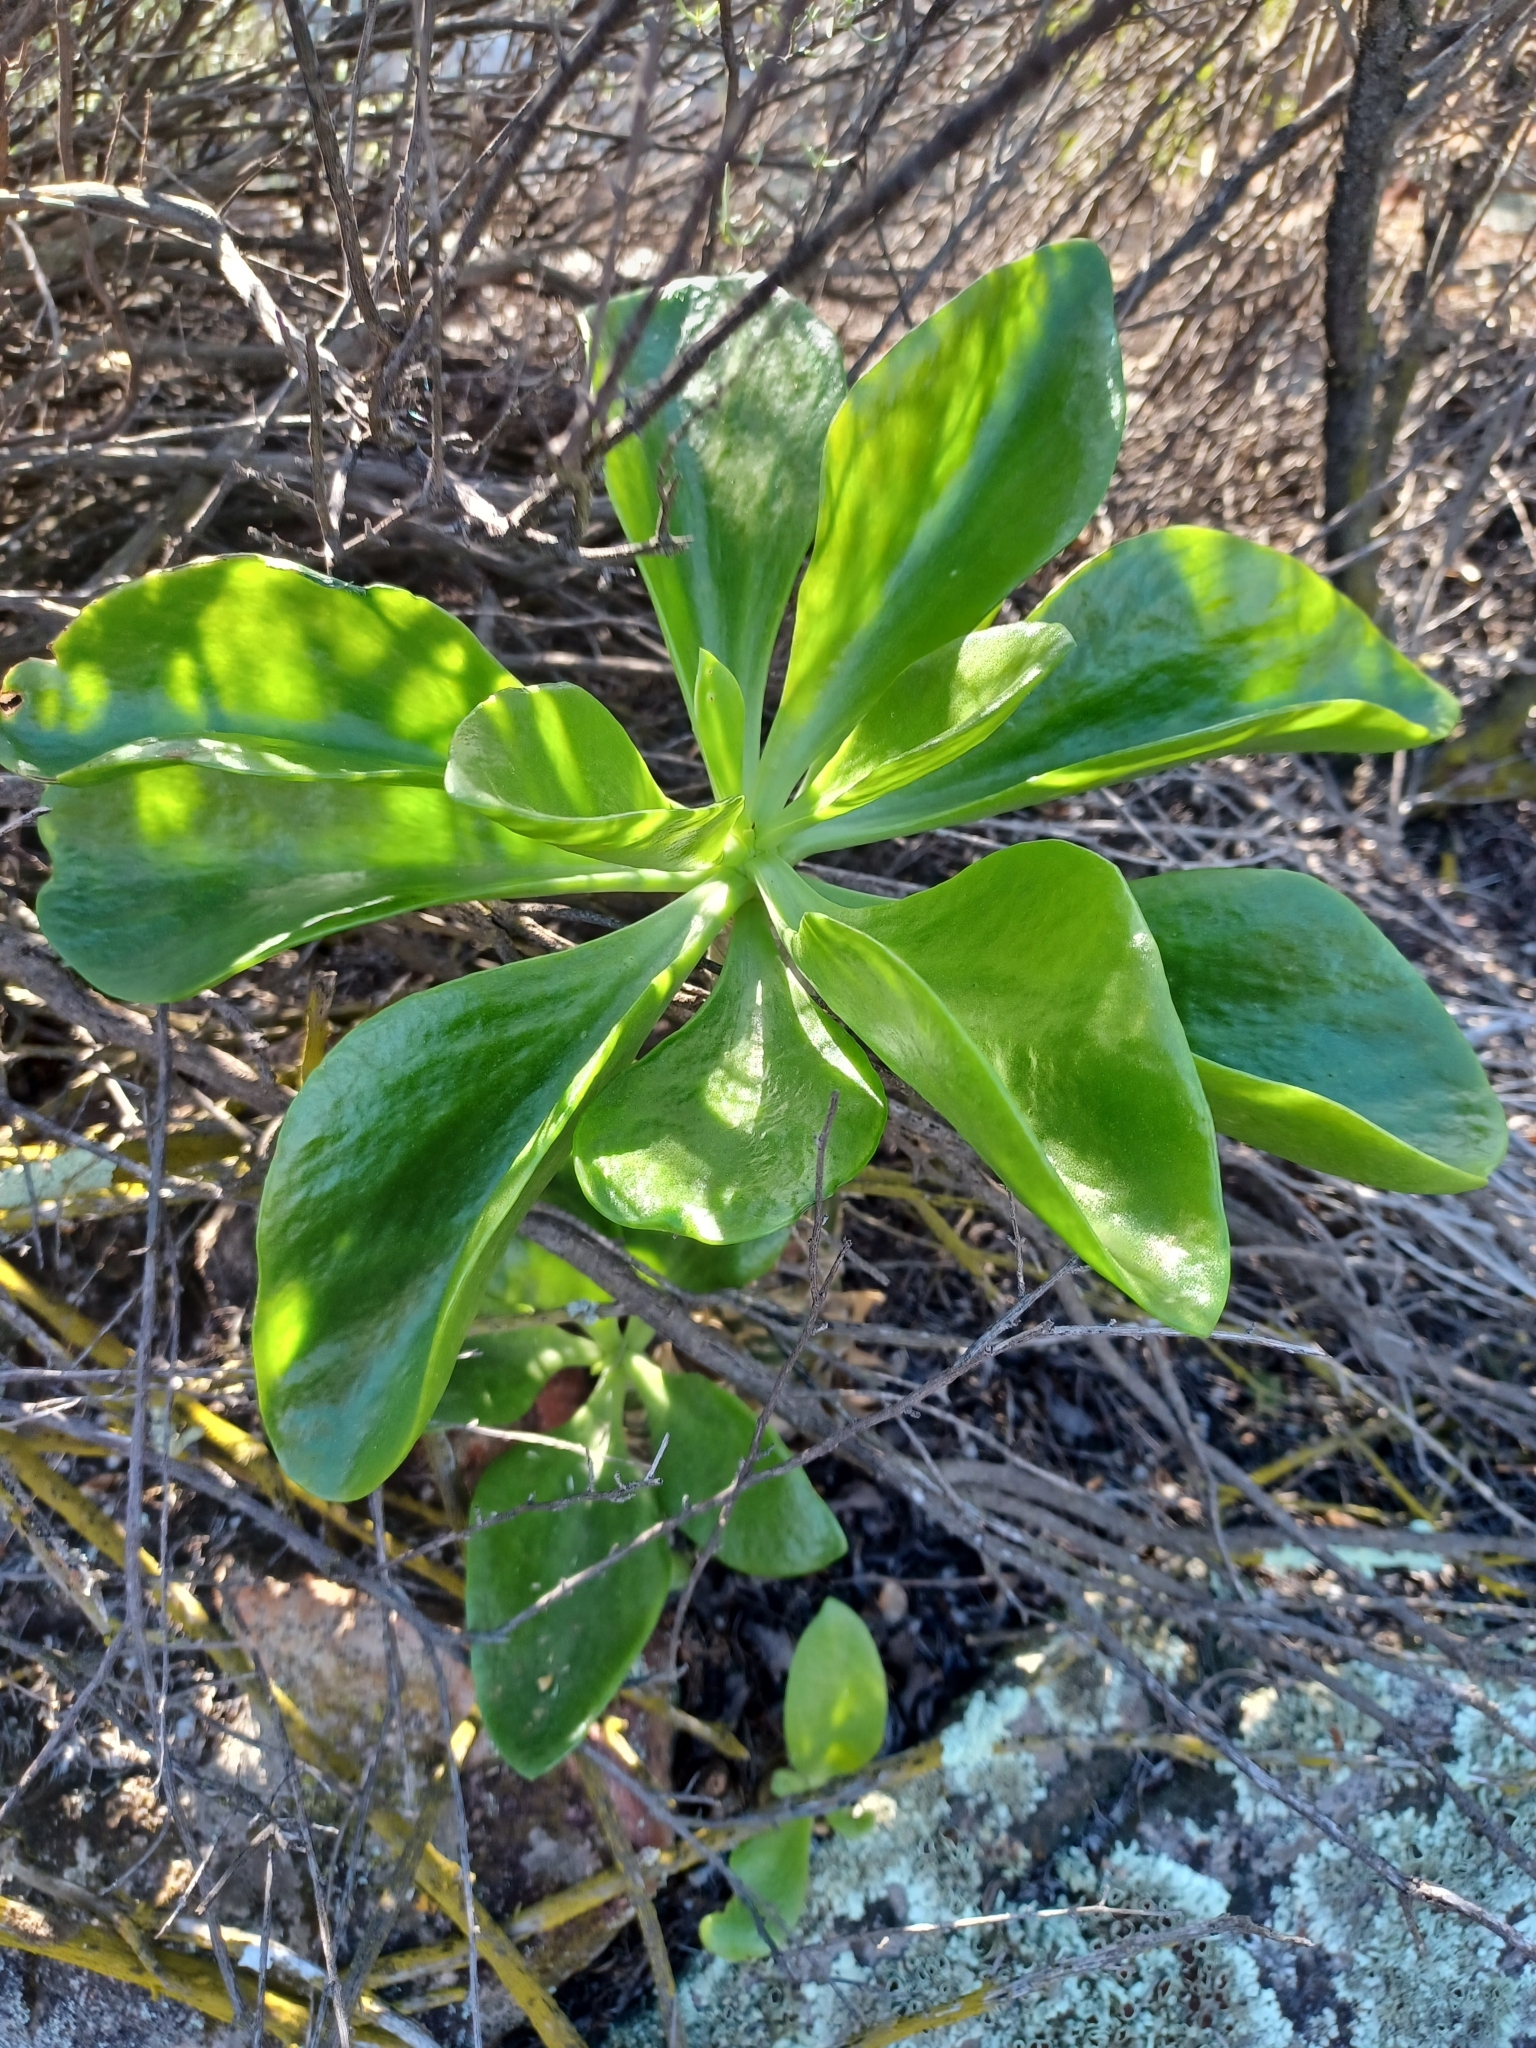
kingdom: Plantae
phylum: Tracheophyta
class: Magnoliopsida
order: Saxifragales
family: Crassulaceae
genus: Tylecodon
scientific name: Tylecodon paniculatus
